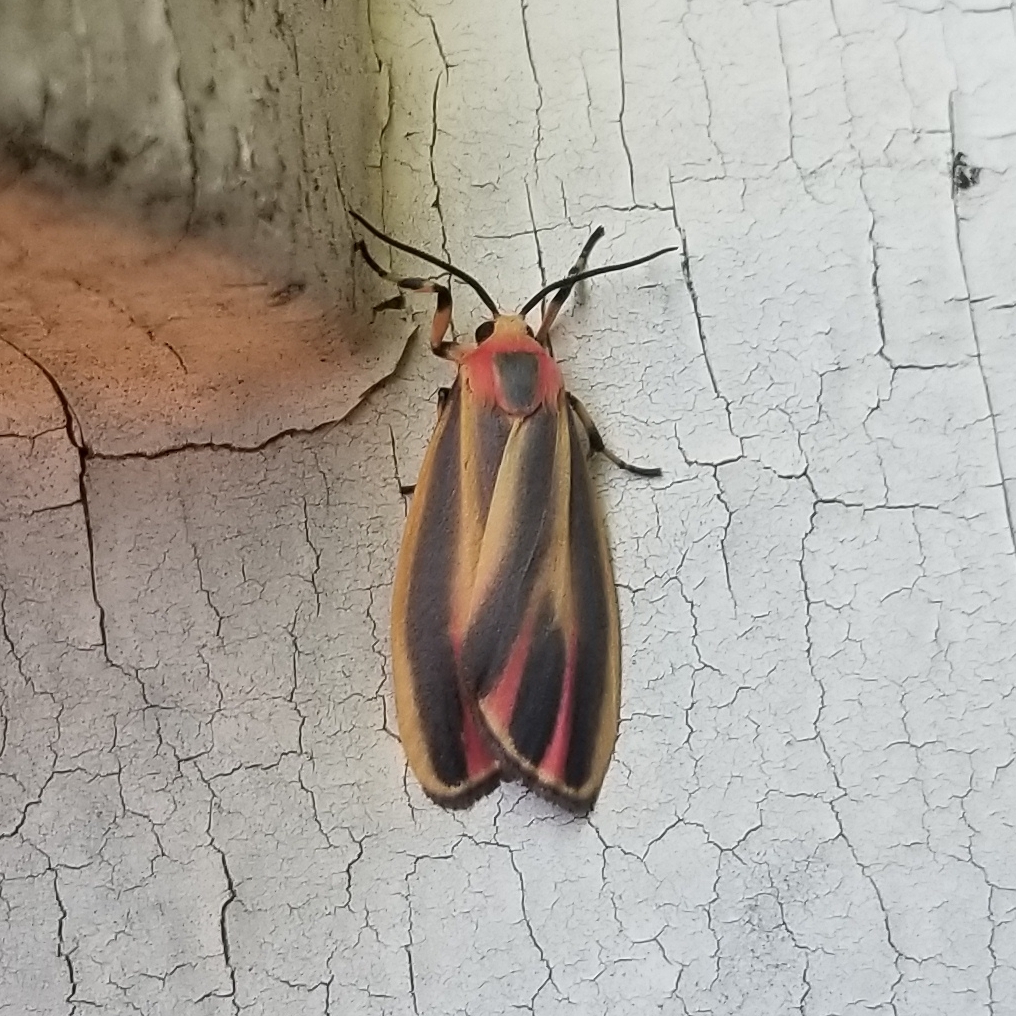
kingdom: Animalia
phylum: Arthropoda
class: Insecta
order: Lepidoptera
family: Erebidae
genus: Hypoprepia
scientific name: Hypoprepia fucosa
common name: Painted lichen moth
